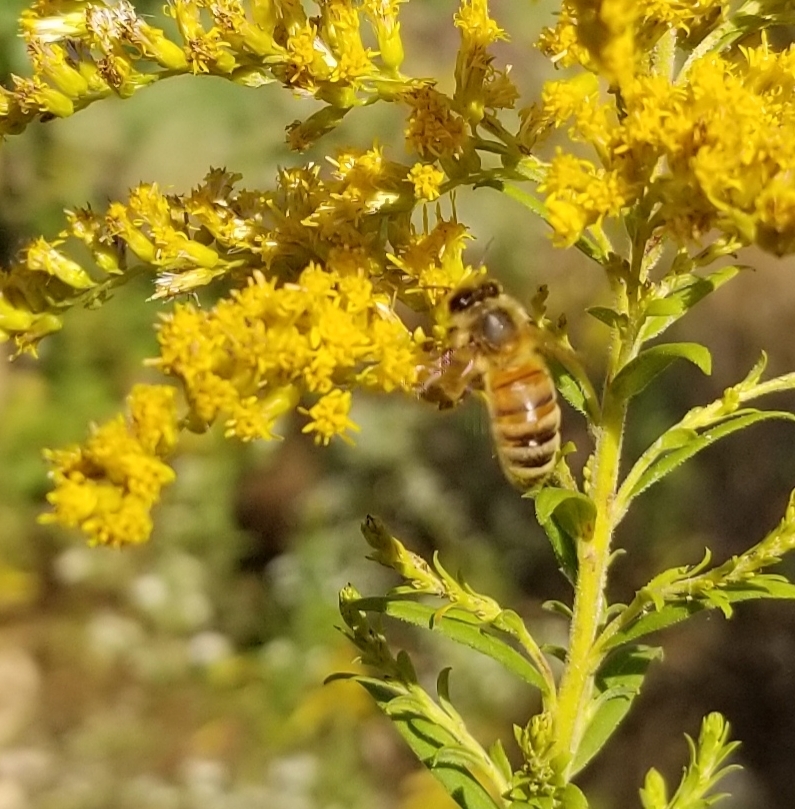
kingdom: Animalia
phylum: Arthropoda
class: Insecta
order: Hymenoptera
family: Apidae
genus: Apis
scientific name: Apis mellifera
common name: Honey bee
